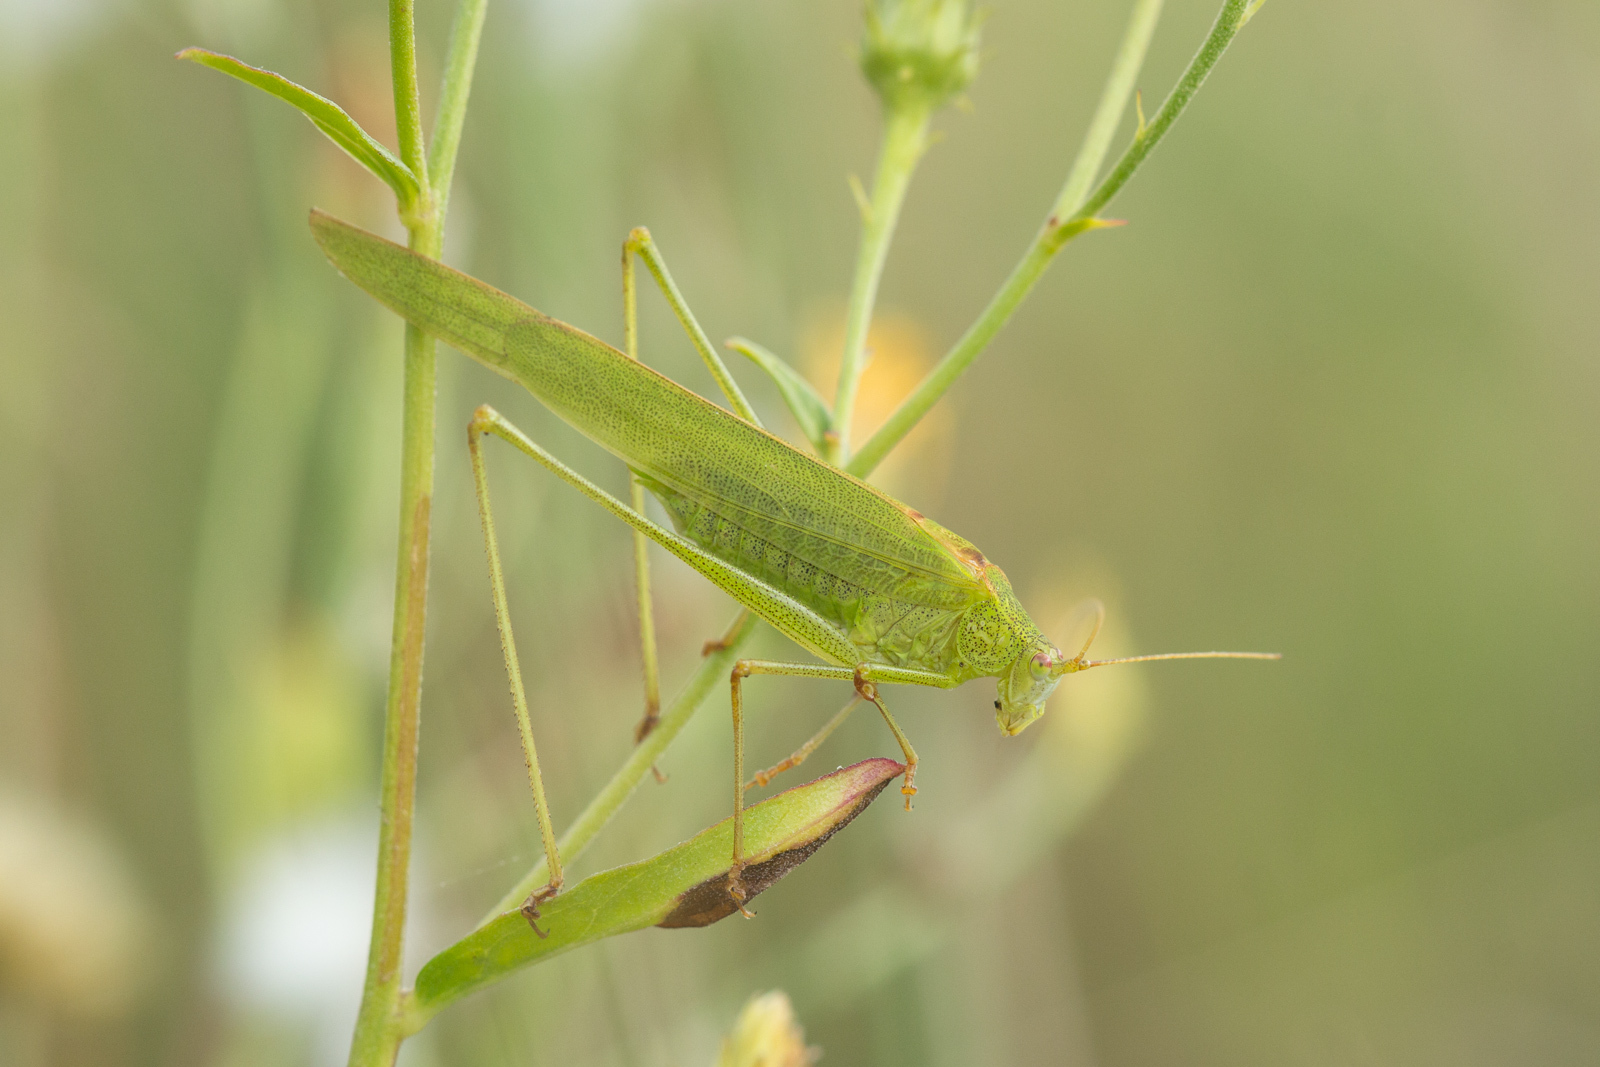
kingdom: Animalia
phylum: Arthropoda
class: Insecta
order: Orthoptera
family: Tettigoniidae
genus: Phaneroptera
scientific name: Phaneroptera falcata
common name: Sickle-bearing bush-cricket
